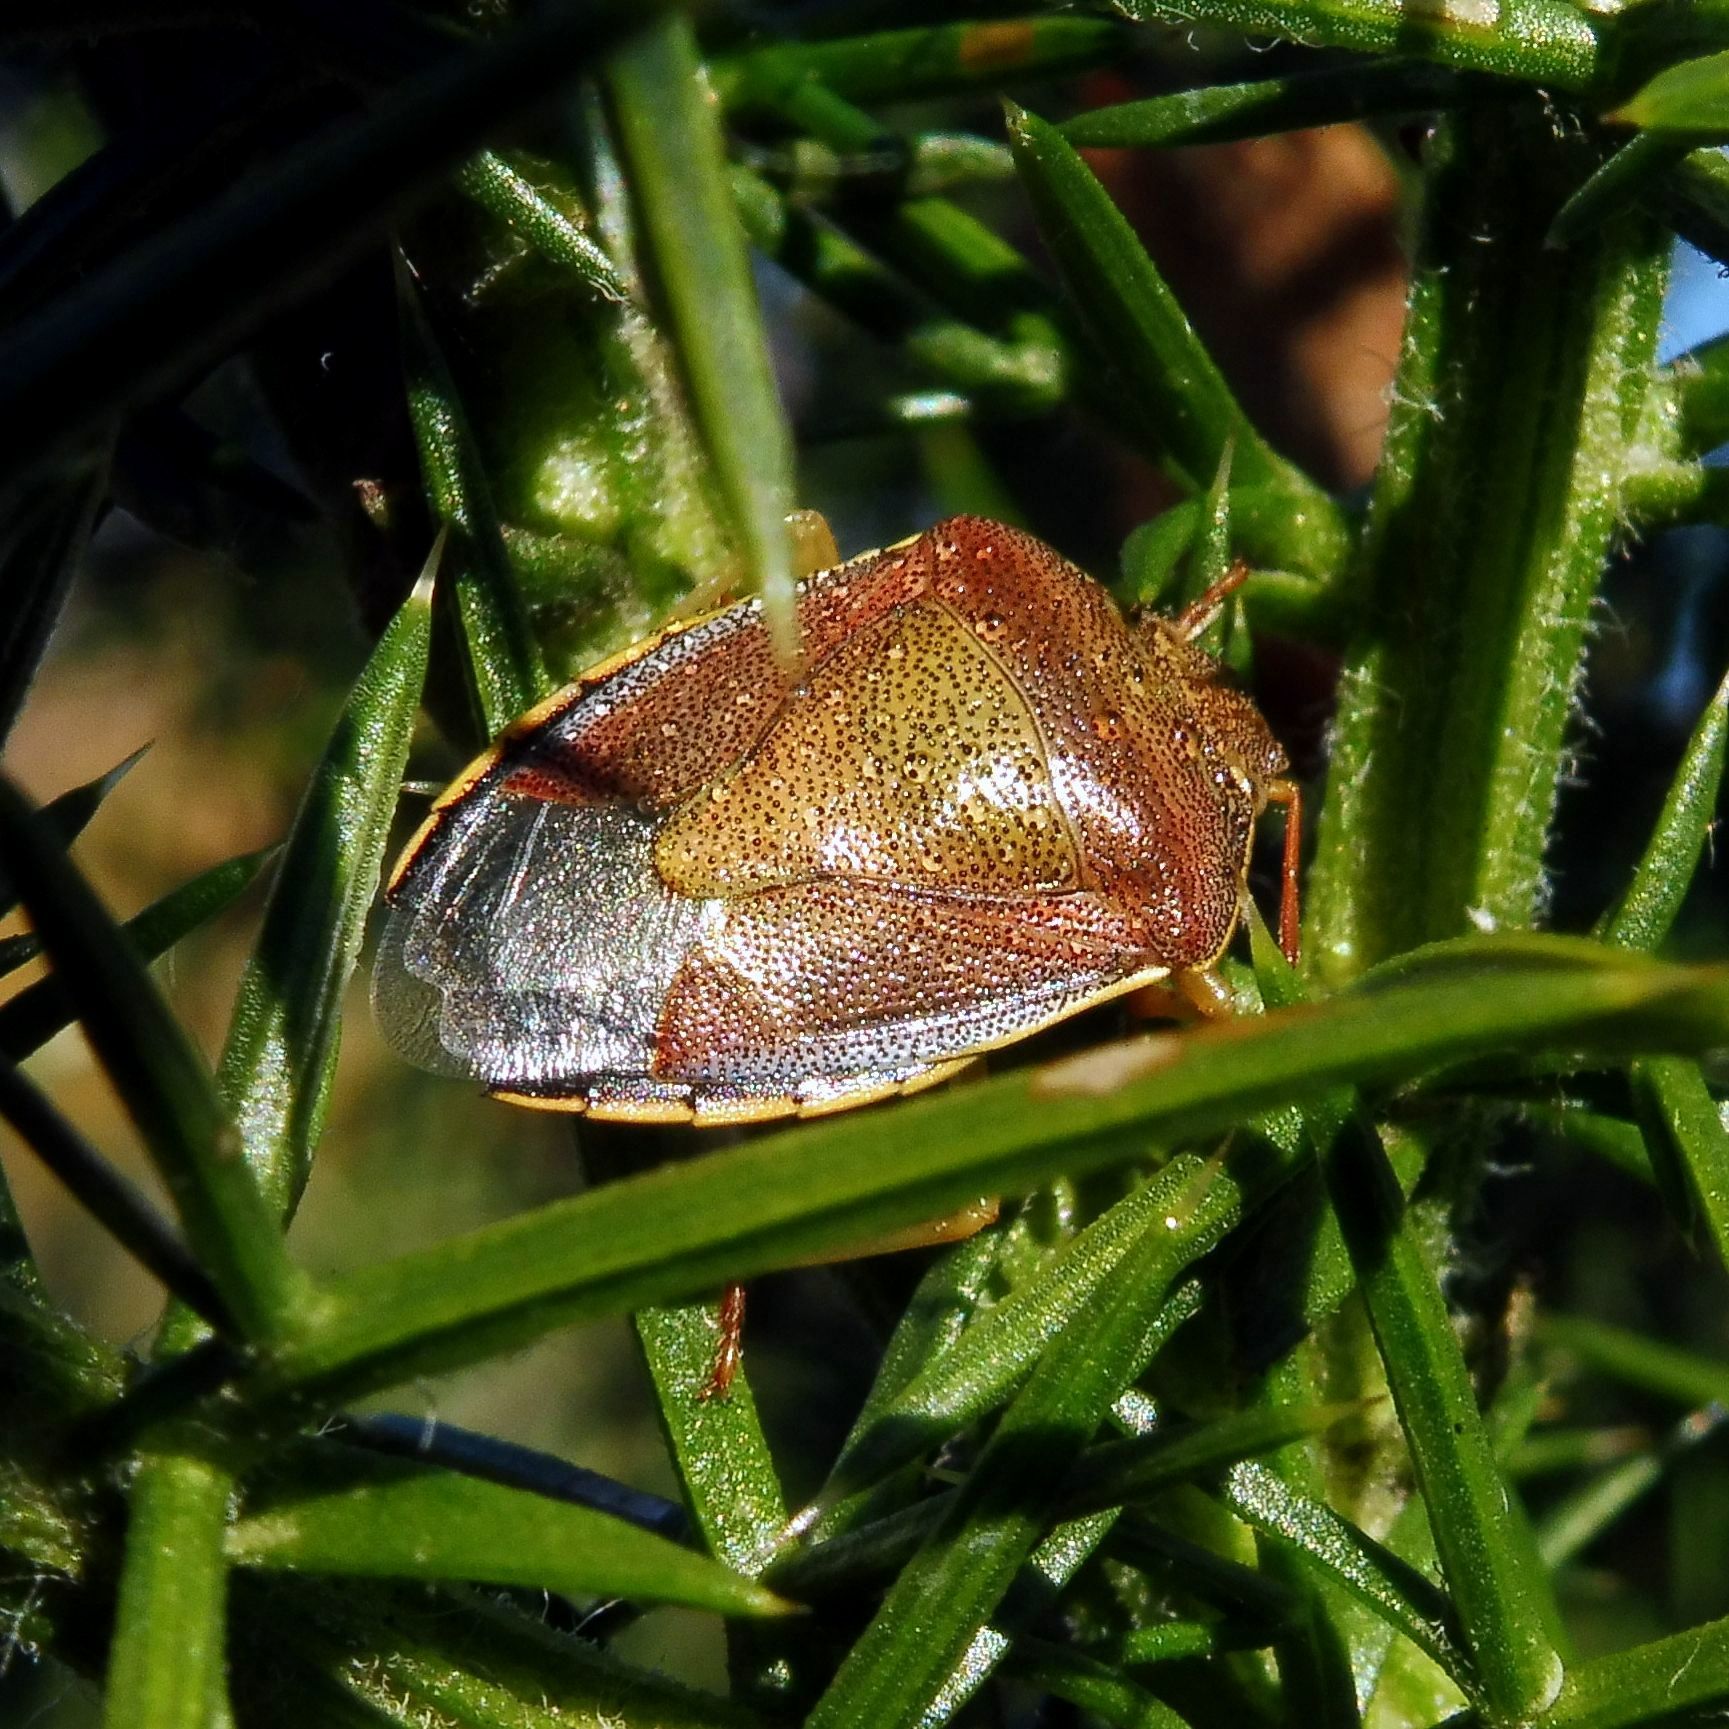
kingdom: Animalia
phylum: Arthropoda
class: Insecta
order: Hemiptera
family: Pentatomidae
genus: Piezodorus
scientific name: Piezodorus lituratus
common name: Stink bug
